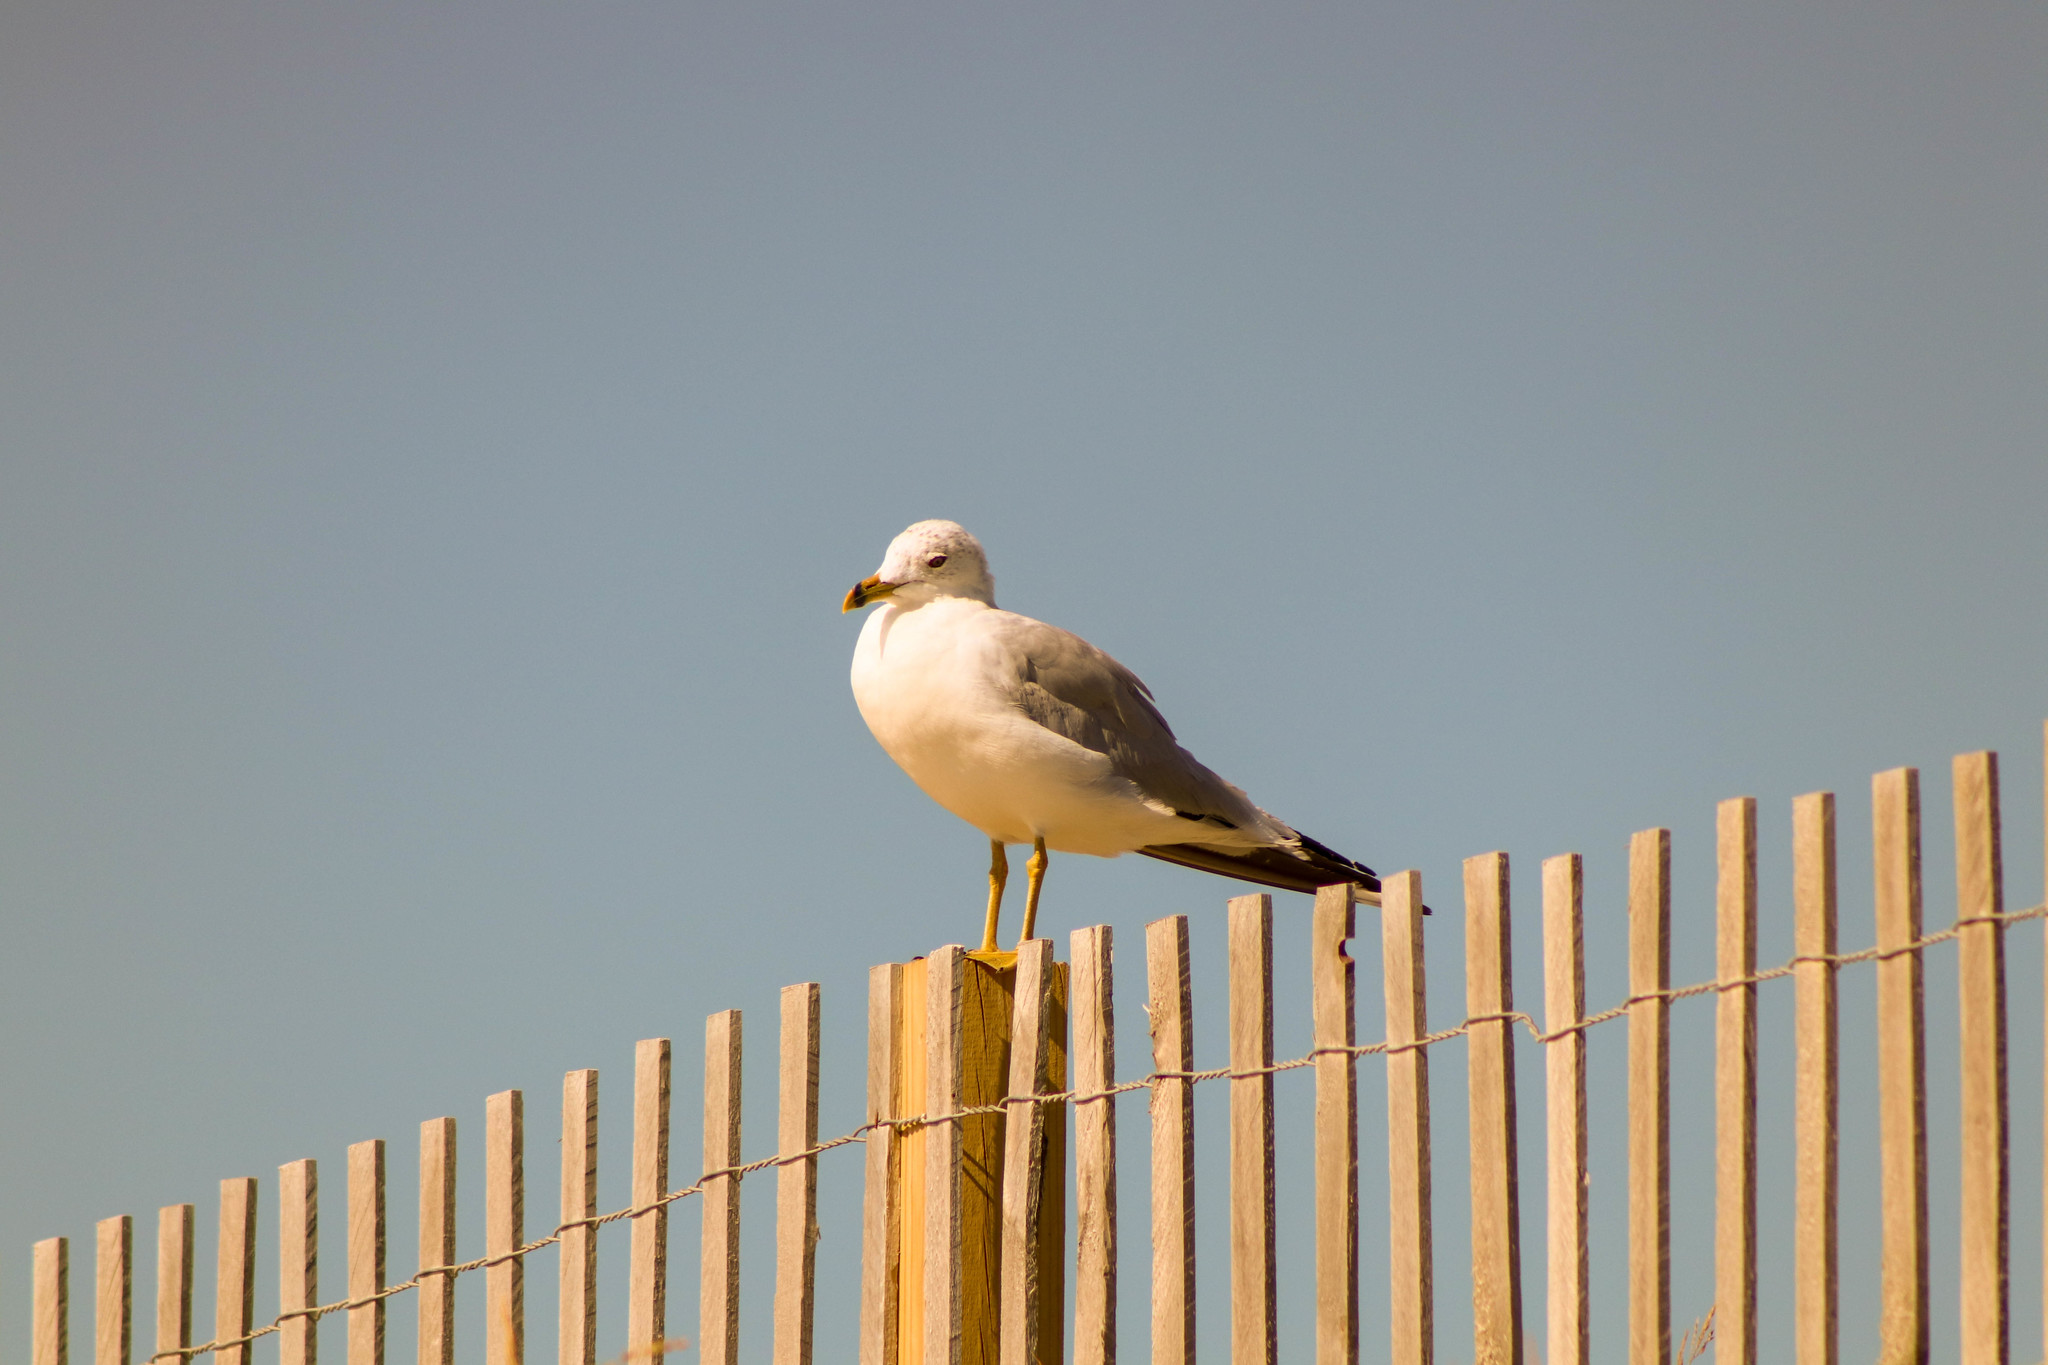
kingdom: Animalia
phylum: Chordata
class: Aves
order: Charadriiformes
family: Laridae
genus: Larus
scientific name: Larus delawarensis
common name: Ring-billed gull
